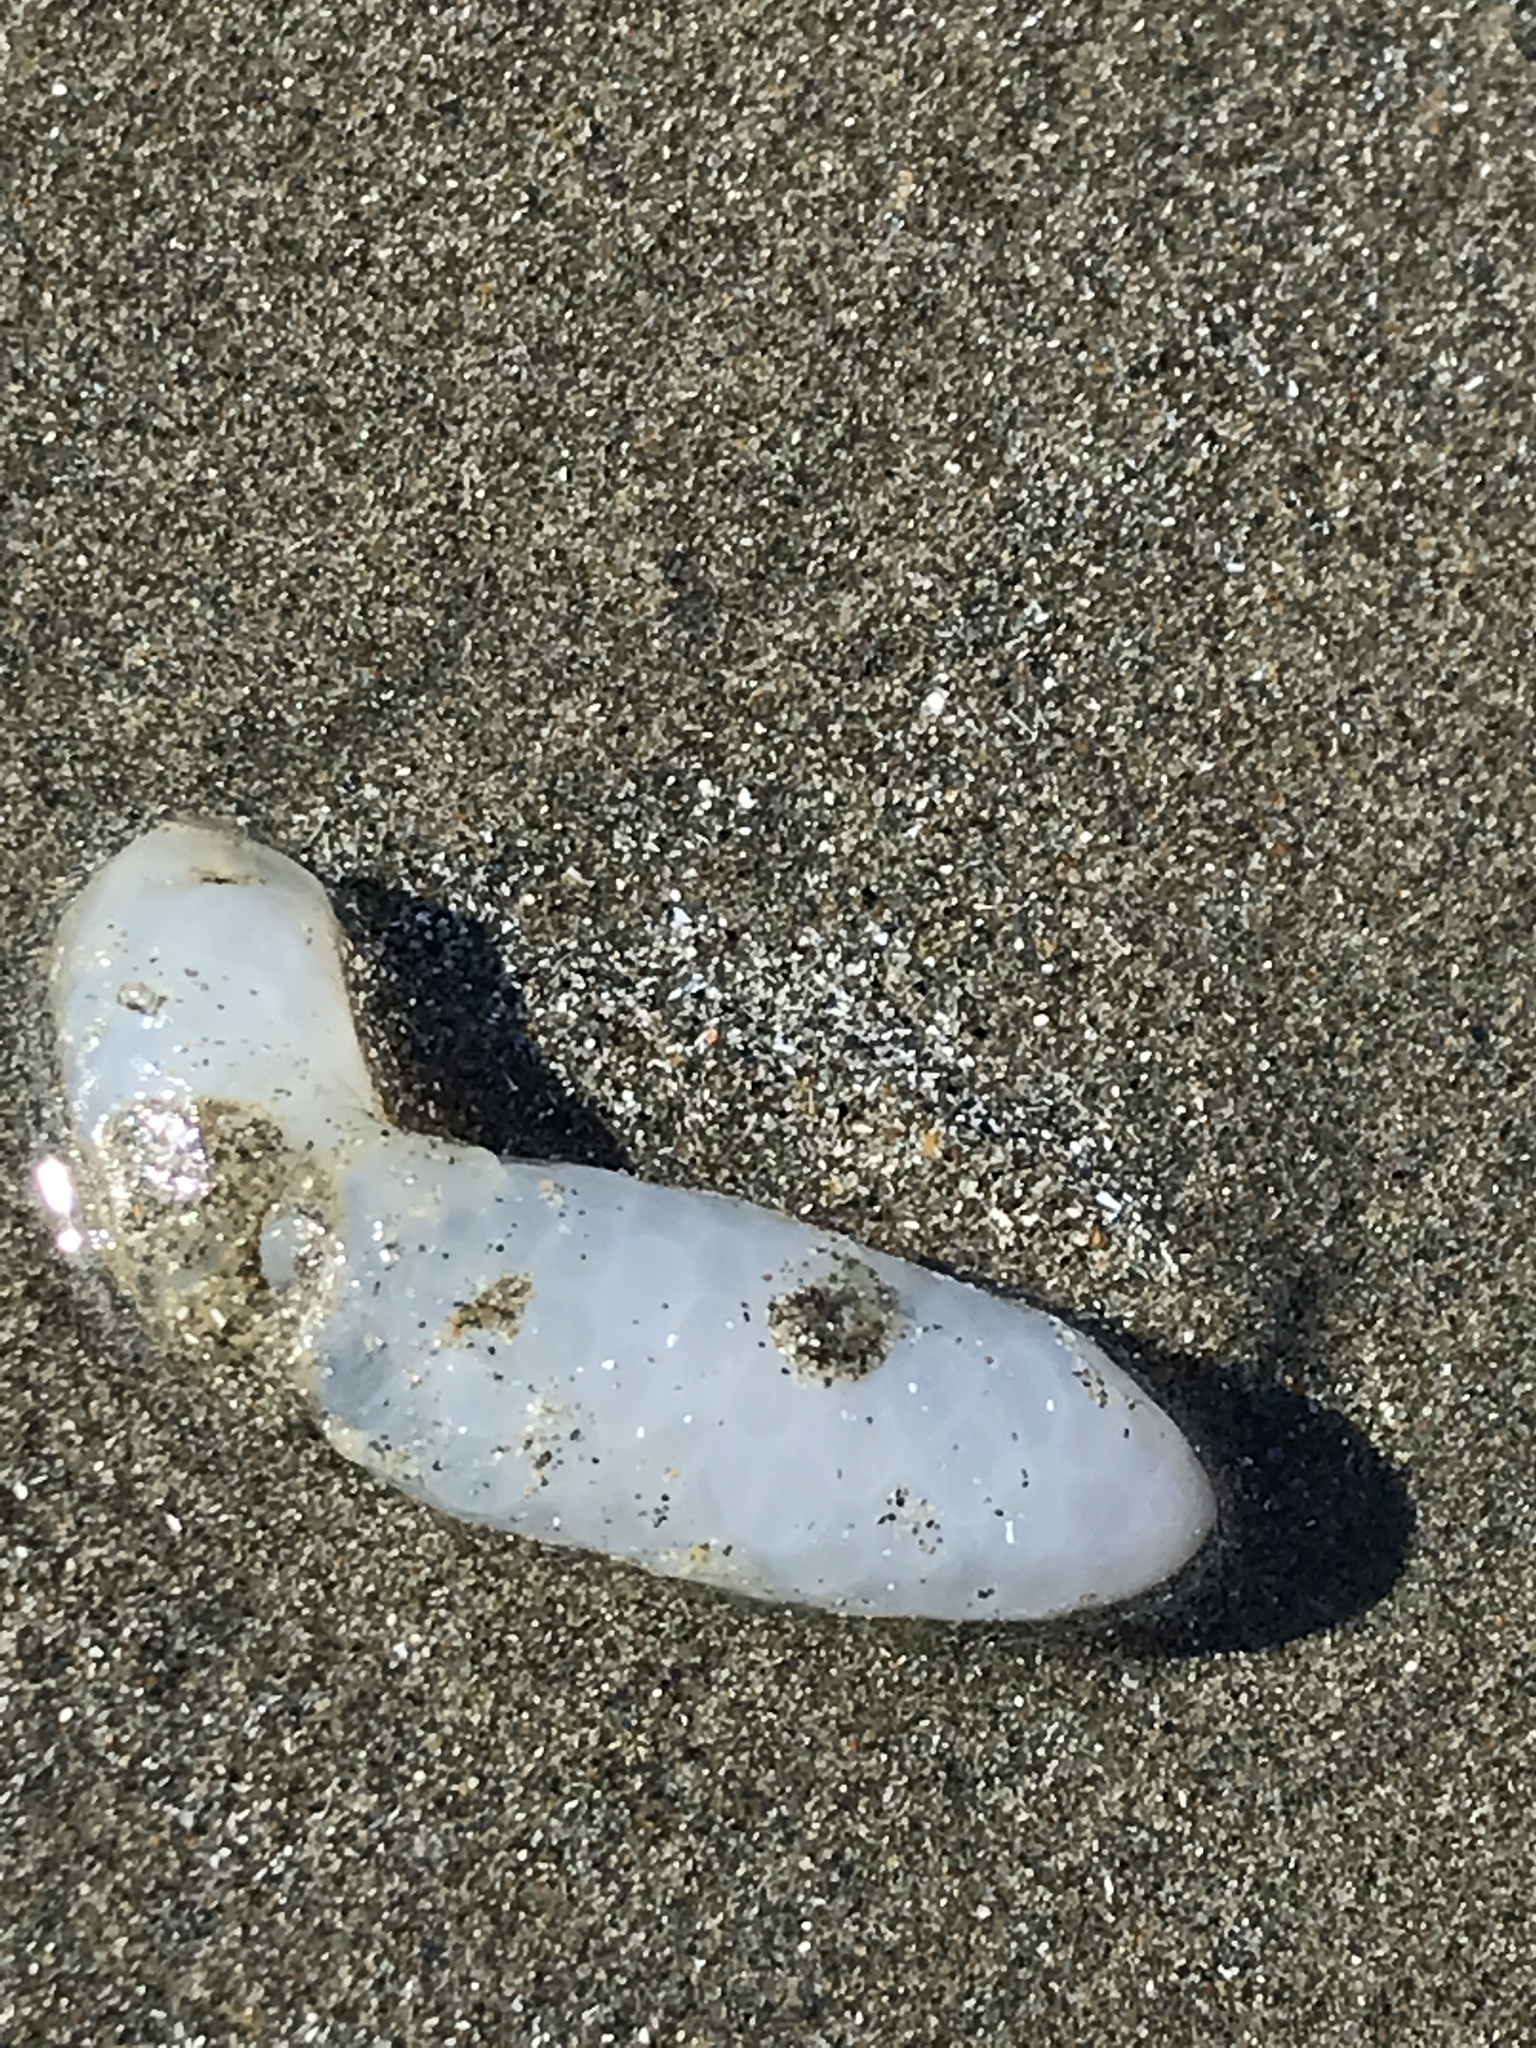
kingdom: Animalia
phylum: Mollusca
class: Cephalopoda
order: Myopsida
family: Loliginidae
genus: Doryteuthis
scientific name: Doryteuthis opalescens
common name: Opalescent inshore squid
